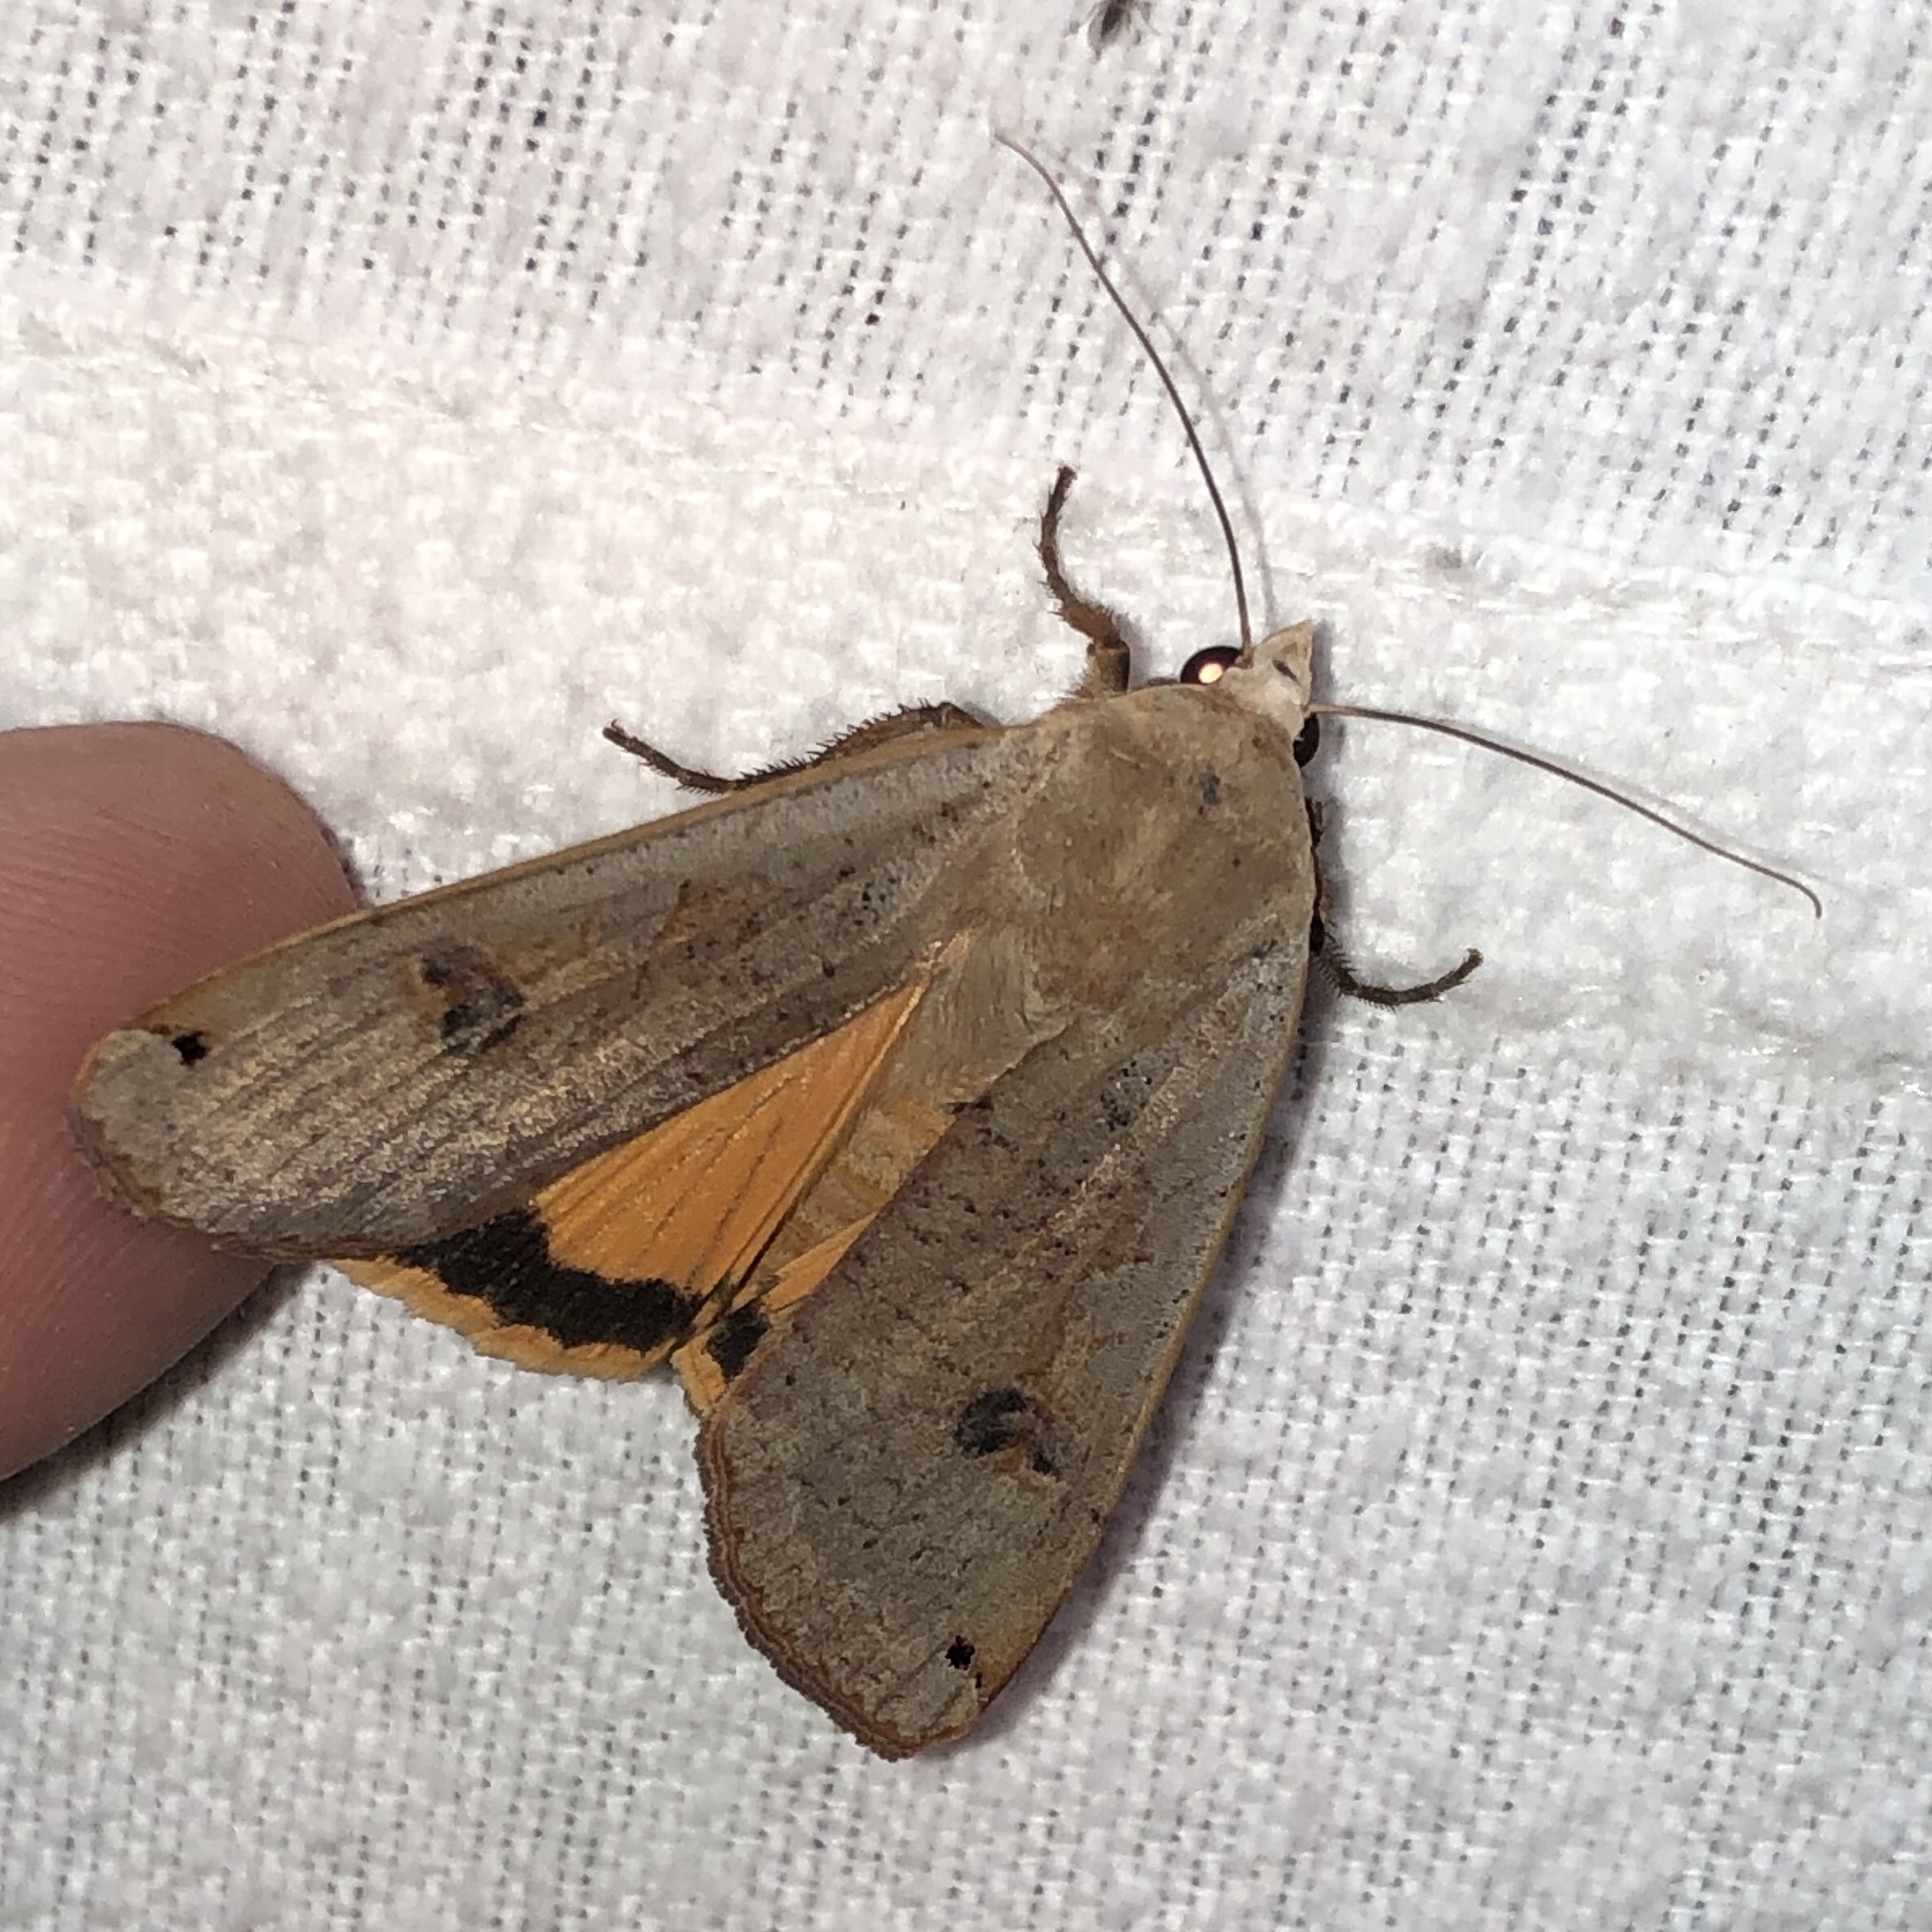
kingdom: Animalia
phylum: Arthropoda
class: Insecta
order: Lepidoptera
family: Noctuidae
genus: Noctua
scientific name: Noctua pronuba
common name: Large yellow underwing
